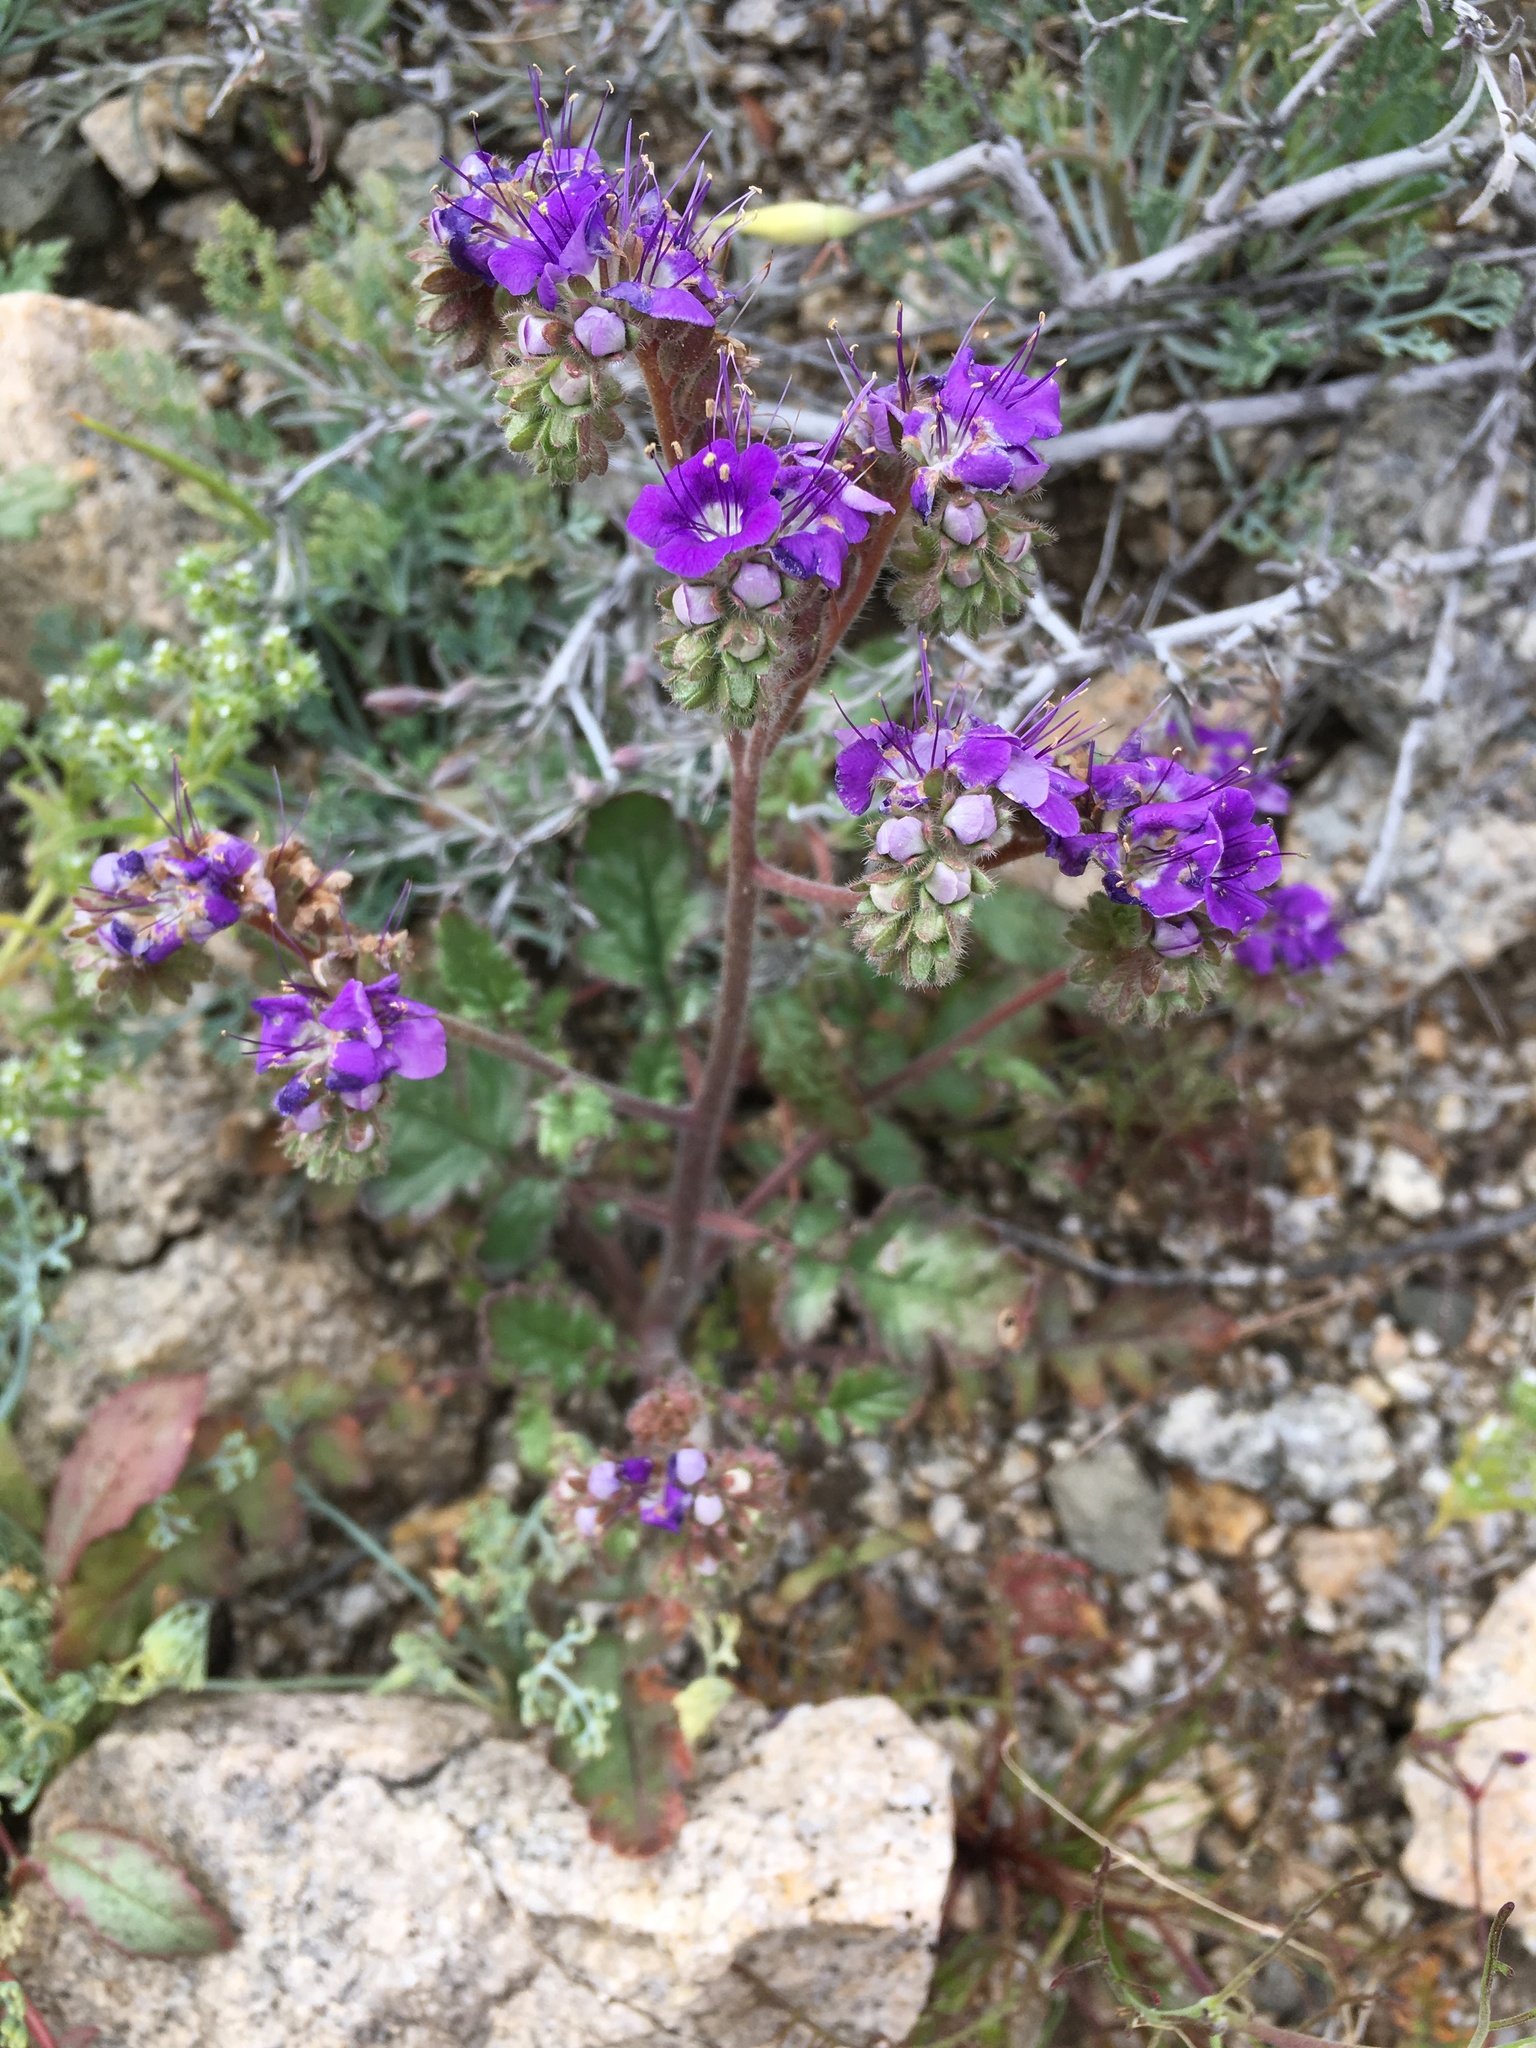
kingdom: Plantae
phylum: Tracheophyta
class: Magnoliopsida
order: Boraginales
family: Hydrophyllaceae
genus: Phacelia
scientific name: Phacelia crenulata
